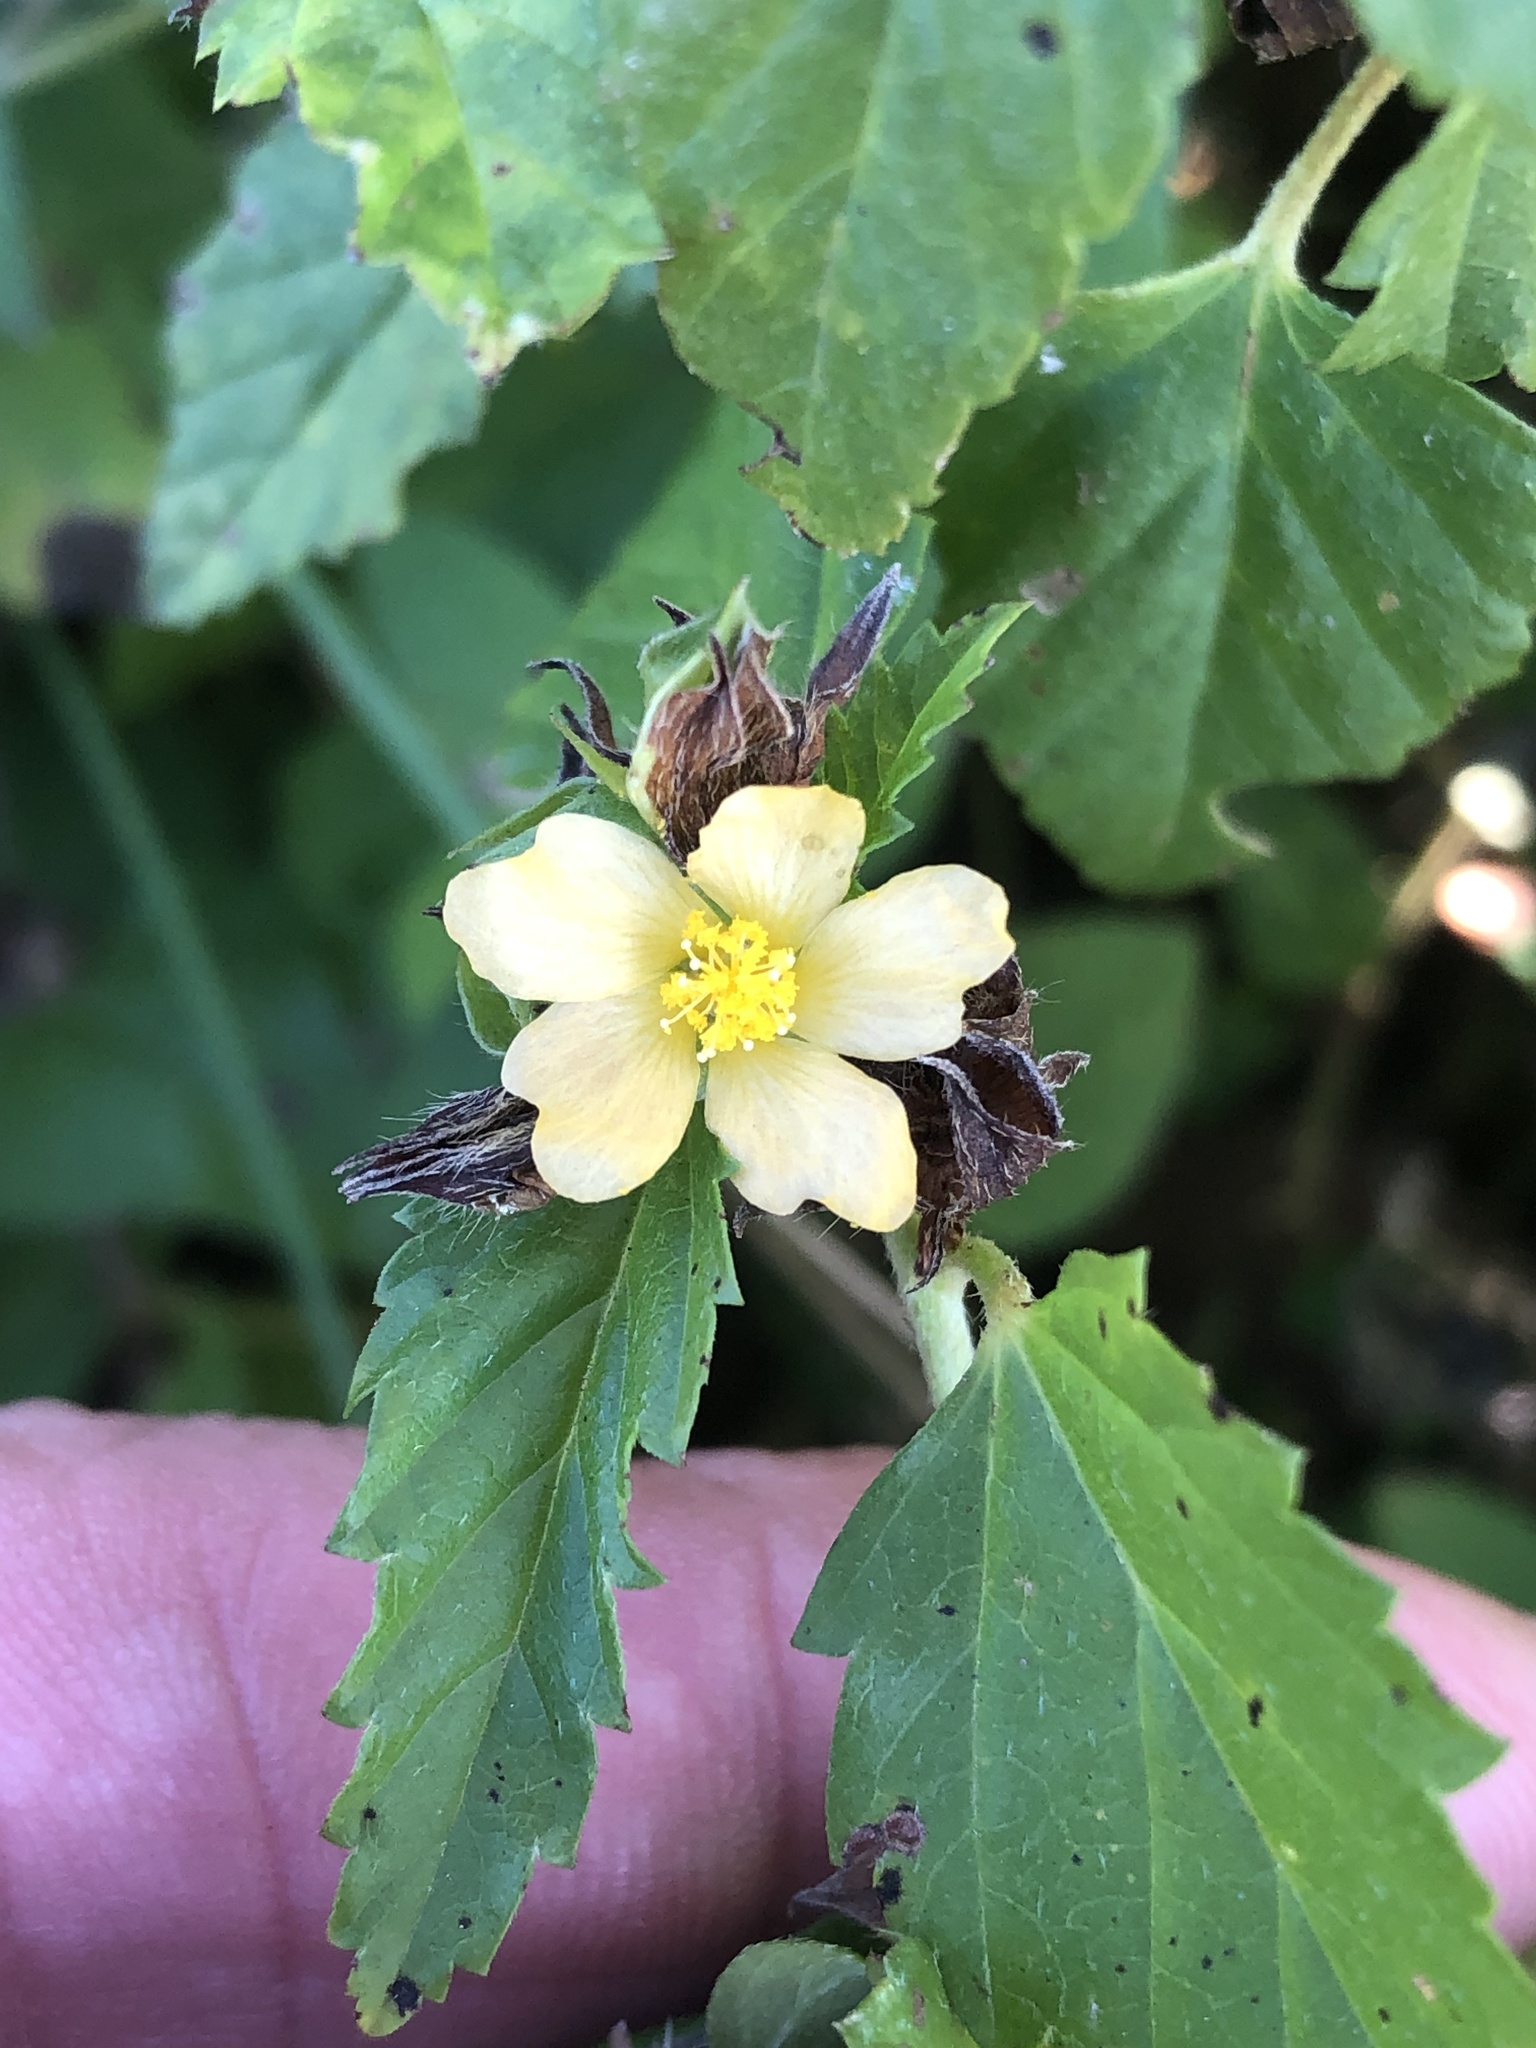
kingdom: Plantae
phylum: Tracheophyta
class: Magnoliopsida
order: Malvales
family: Malvaceae
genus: Malvastrum
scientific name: Malvastrum coromandelianum
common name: Threelobe false mallow
